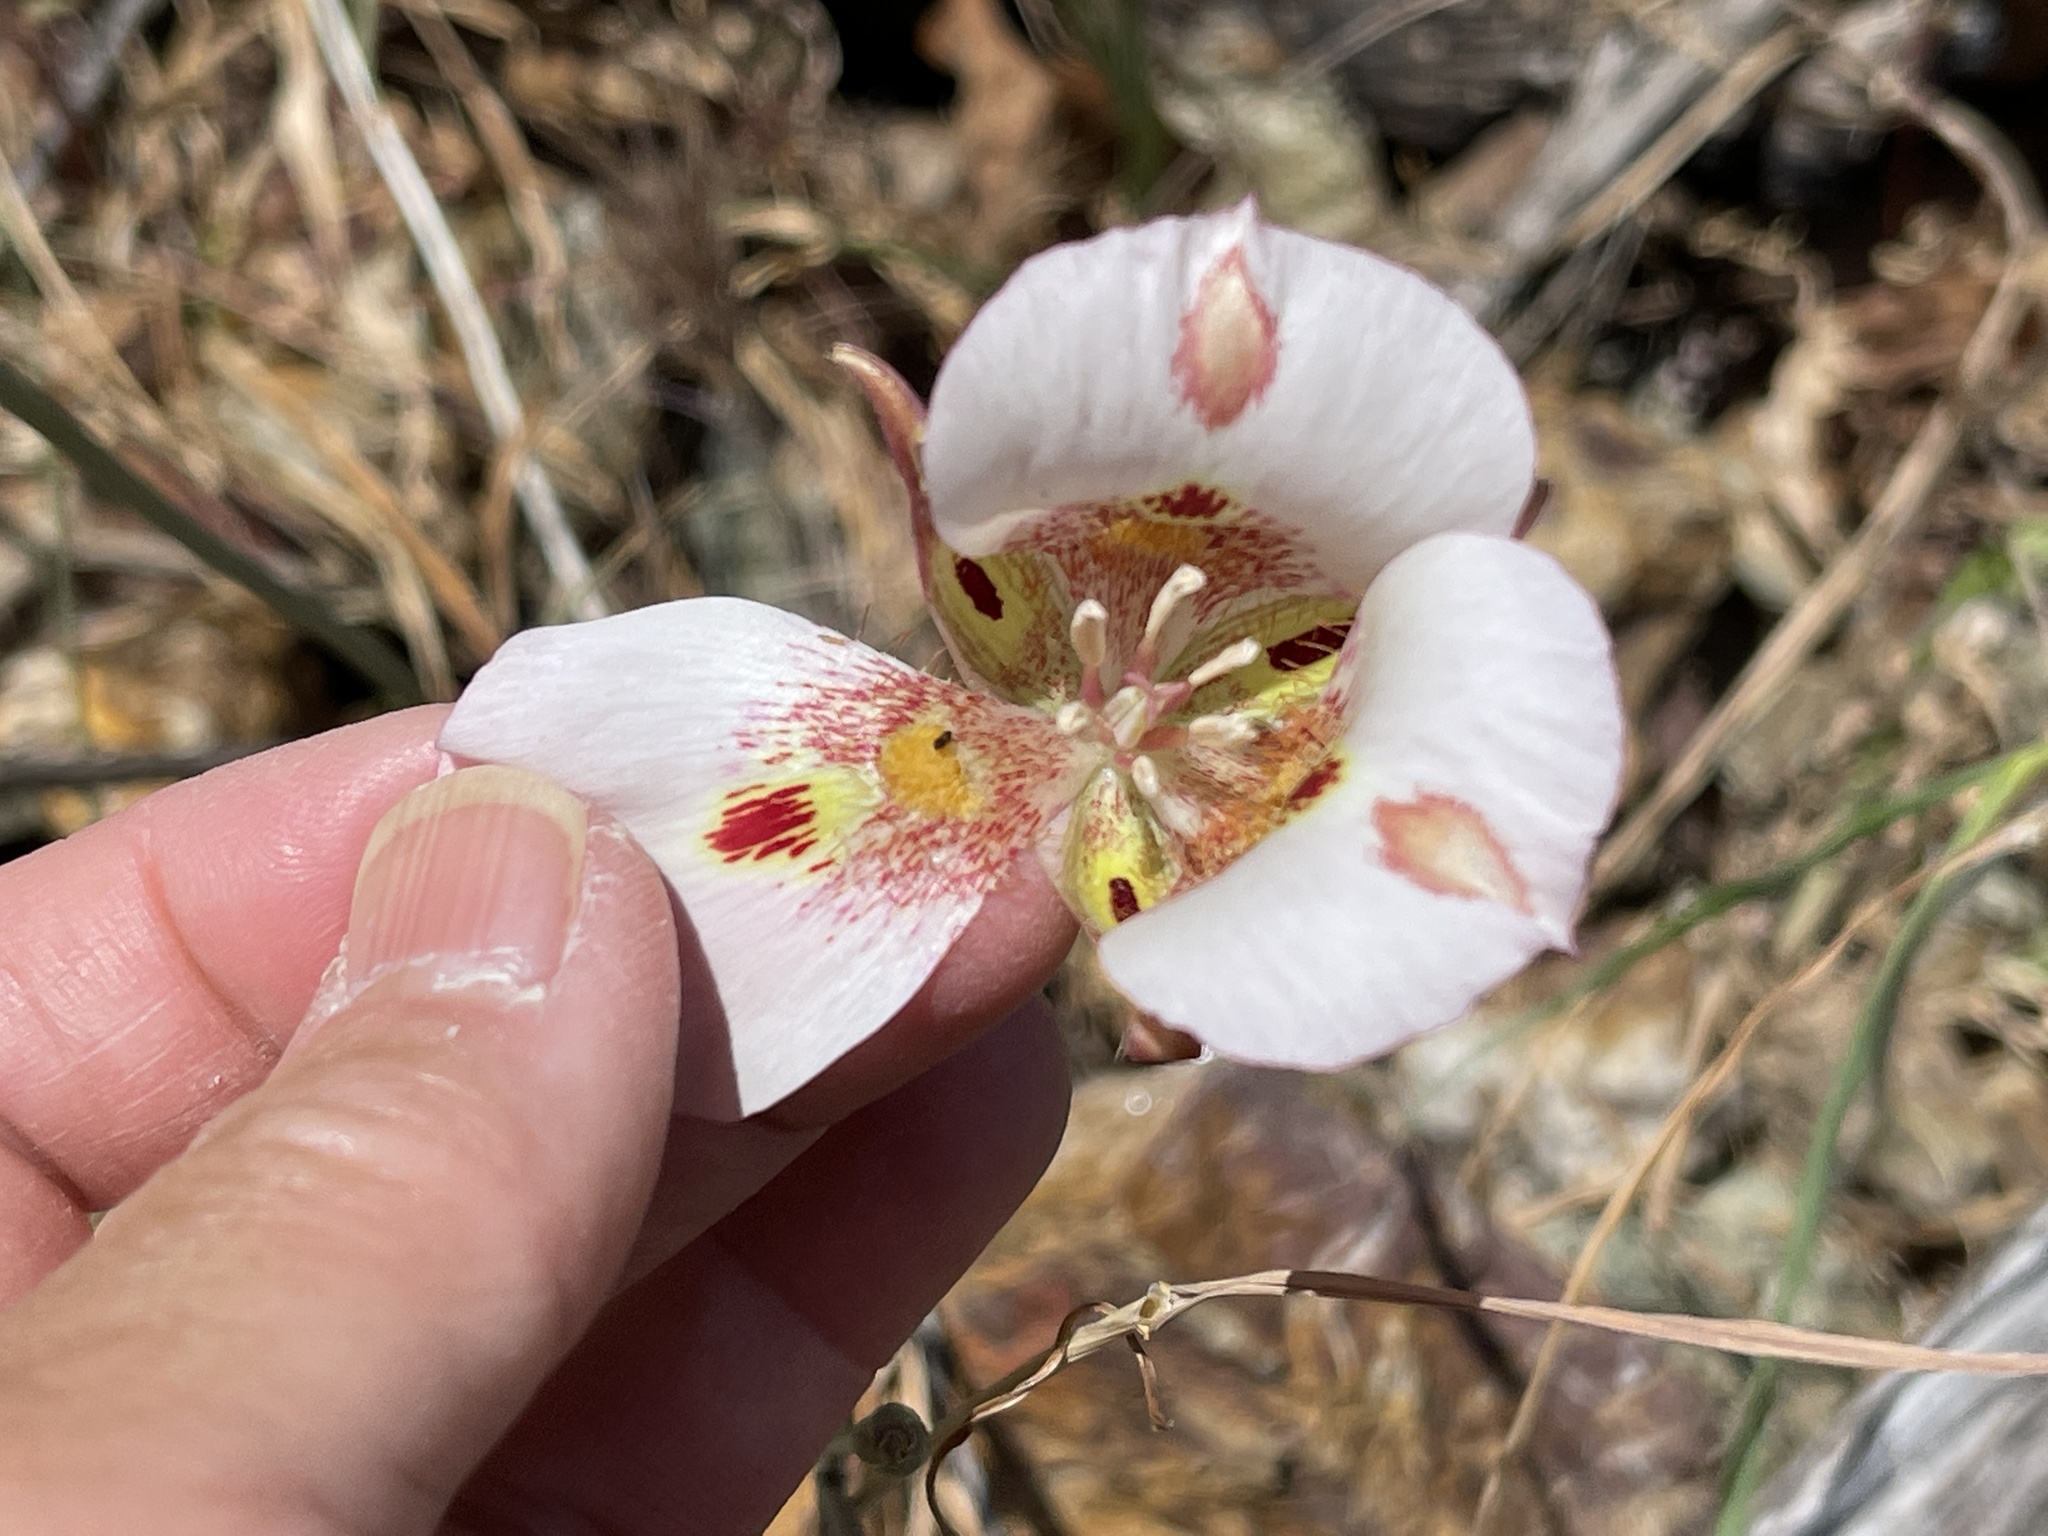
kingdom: Plantae
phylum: Tracheophyta
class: Liliopsida
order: Liliales
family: Liliaceae
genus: Calochortus
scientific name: Calochortus venustus
